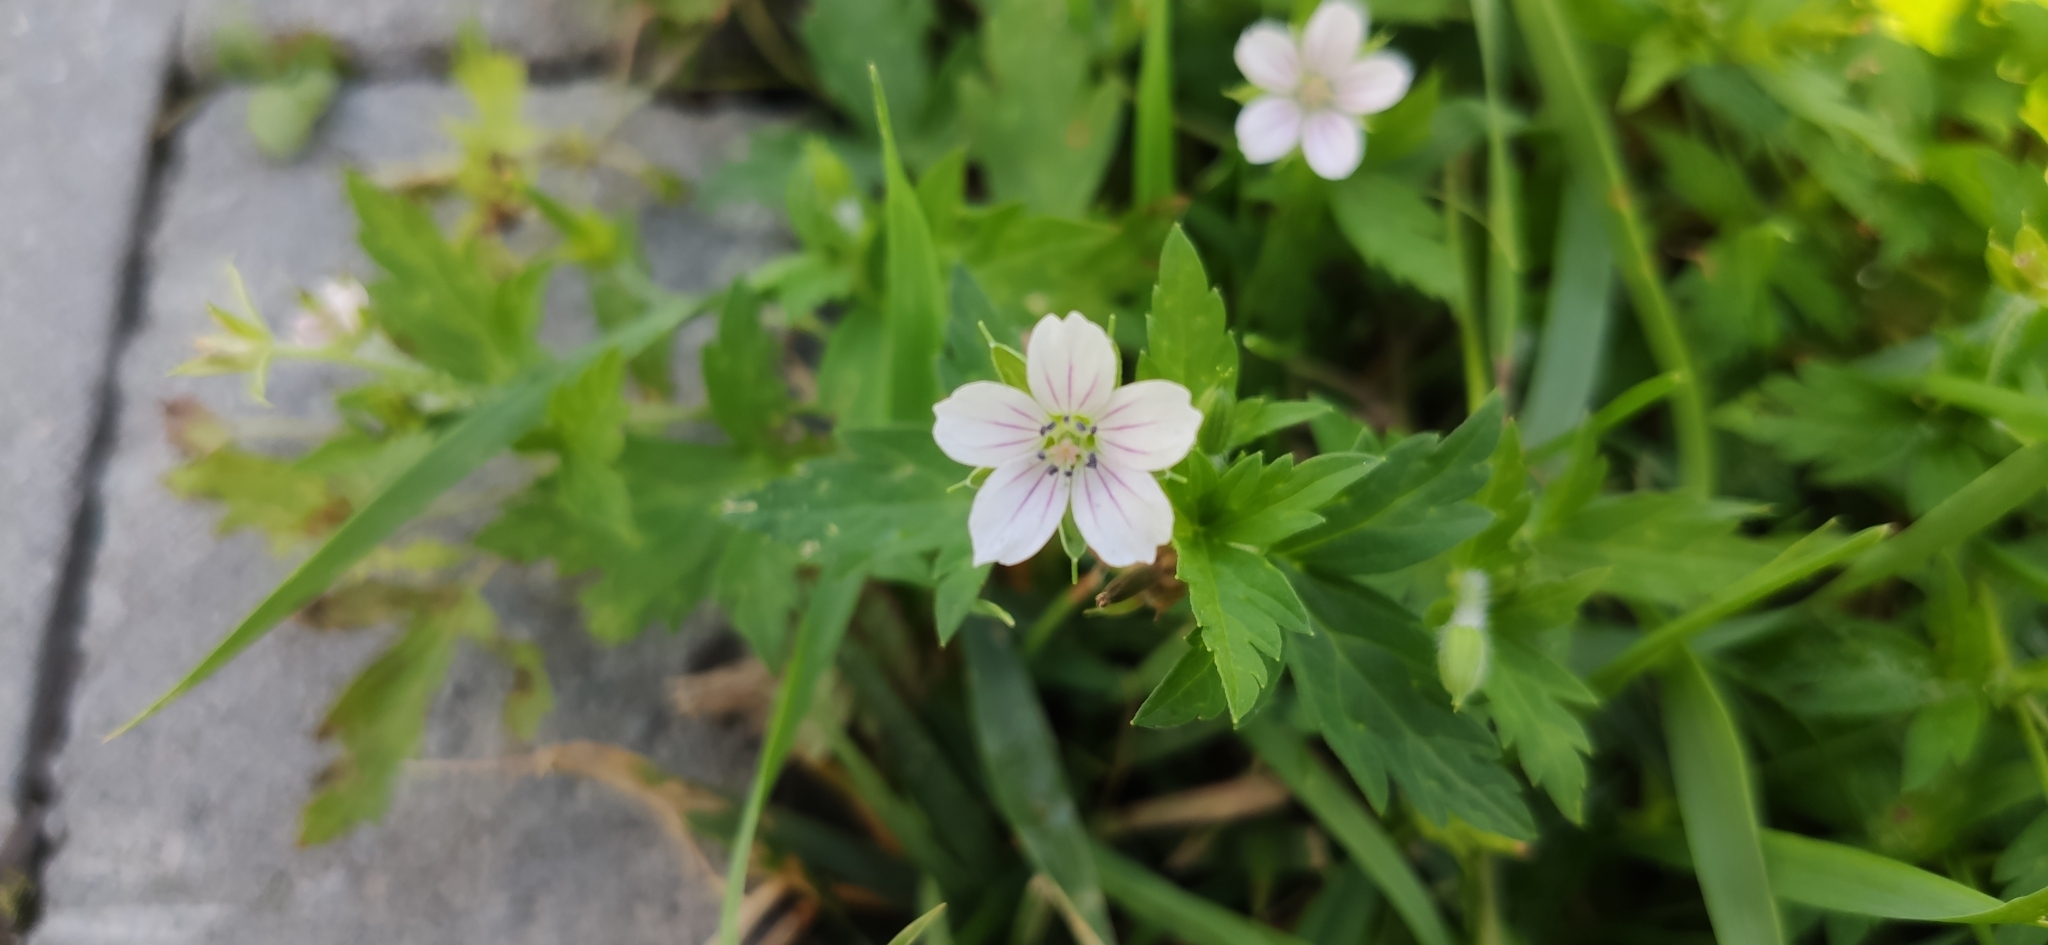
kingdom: Plantae
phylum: Tracheophyta
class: Magnoliopsida
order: Geraniales
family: Geraniaceae
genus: Geranium
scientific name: Geranium sibiricum
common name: Siberian crane's-bill
